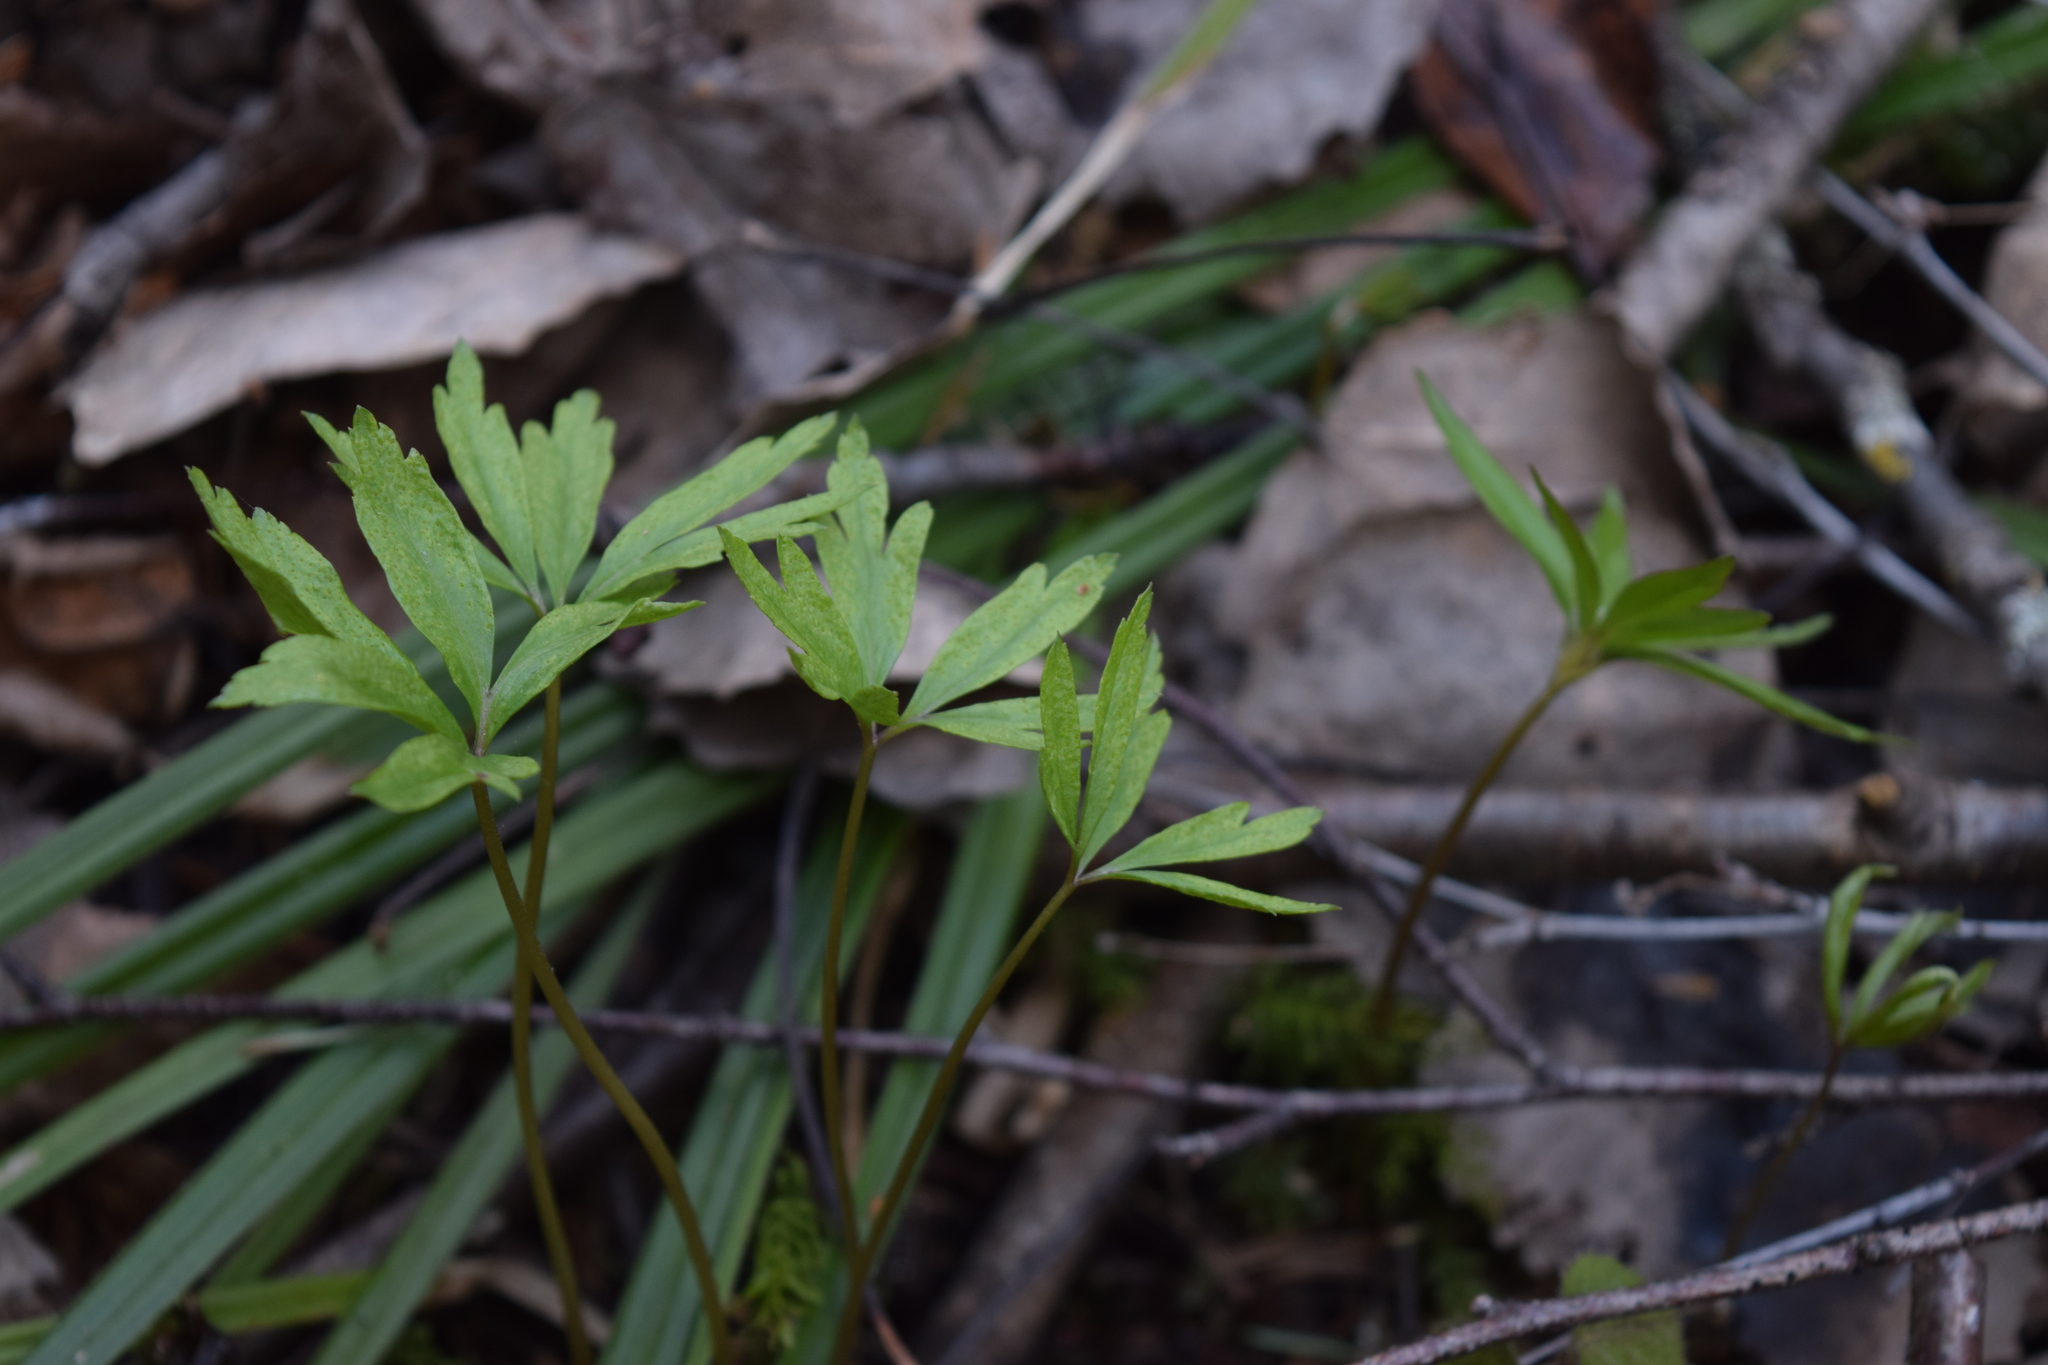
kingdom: Plantae
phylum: Tracheophyta
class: Magnoliopsida
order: Ranunculales
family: Ranunculaceae
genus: Anemone
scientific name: Anemone ranunculoides
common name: Yellow anemone
